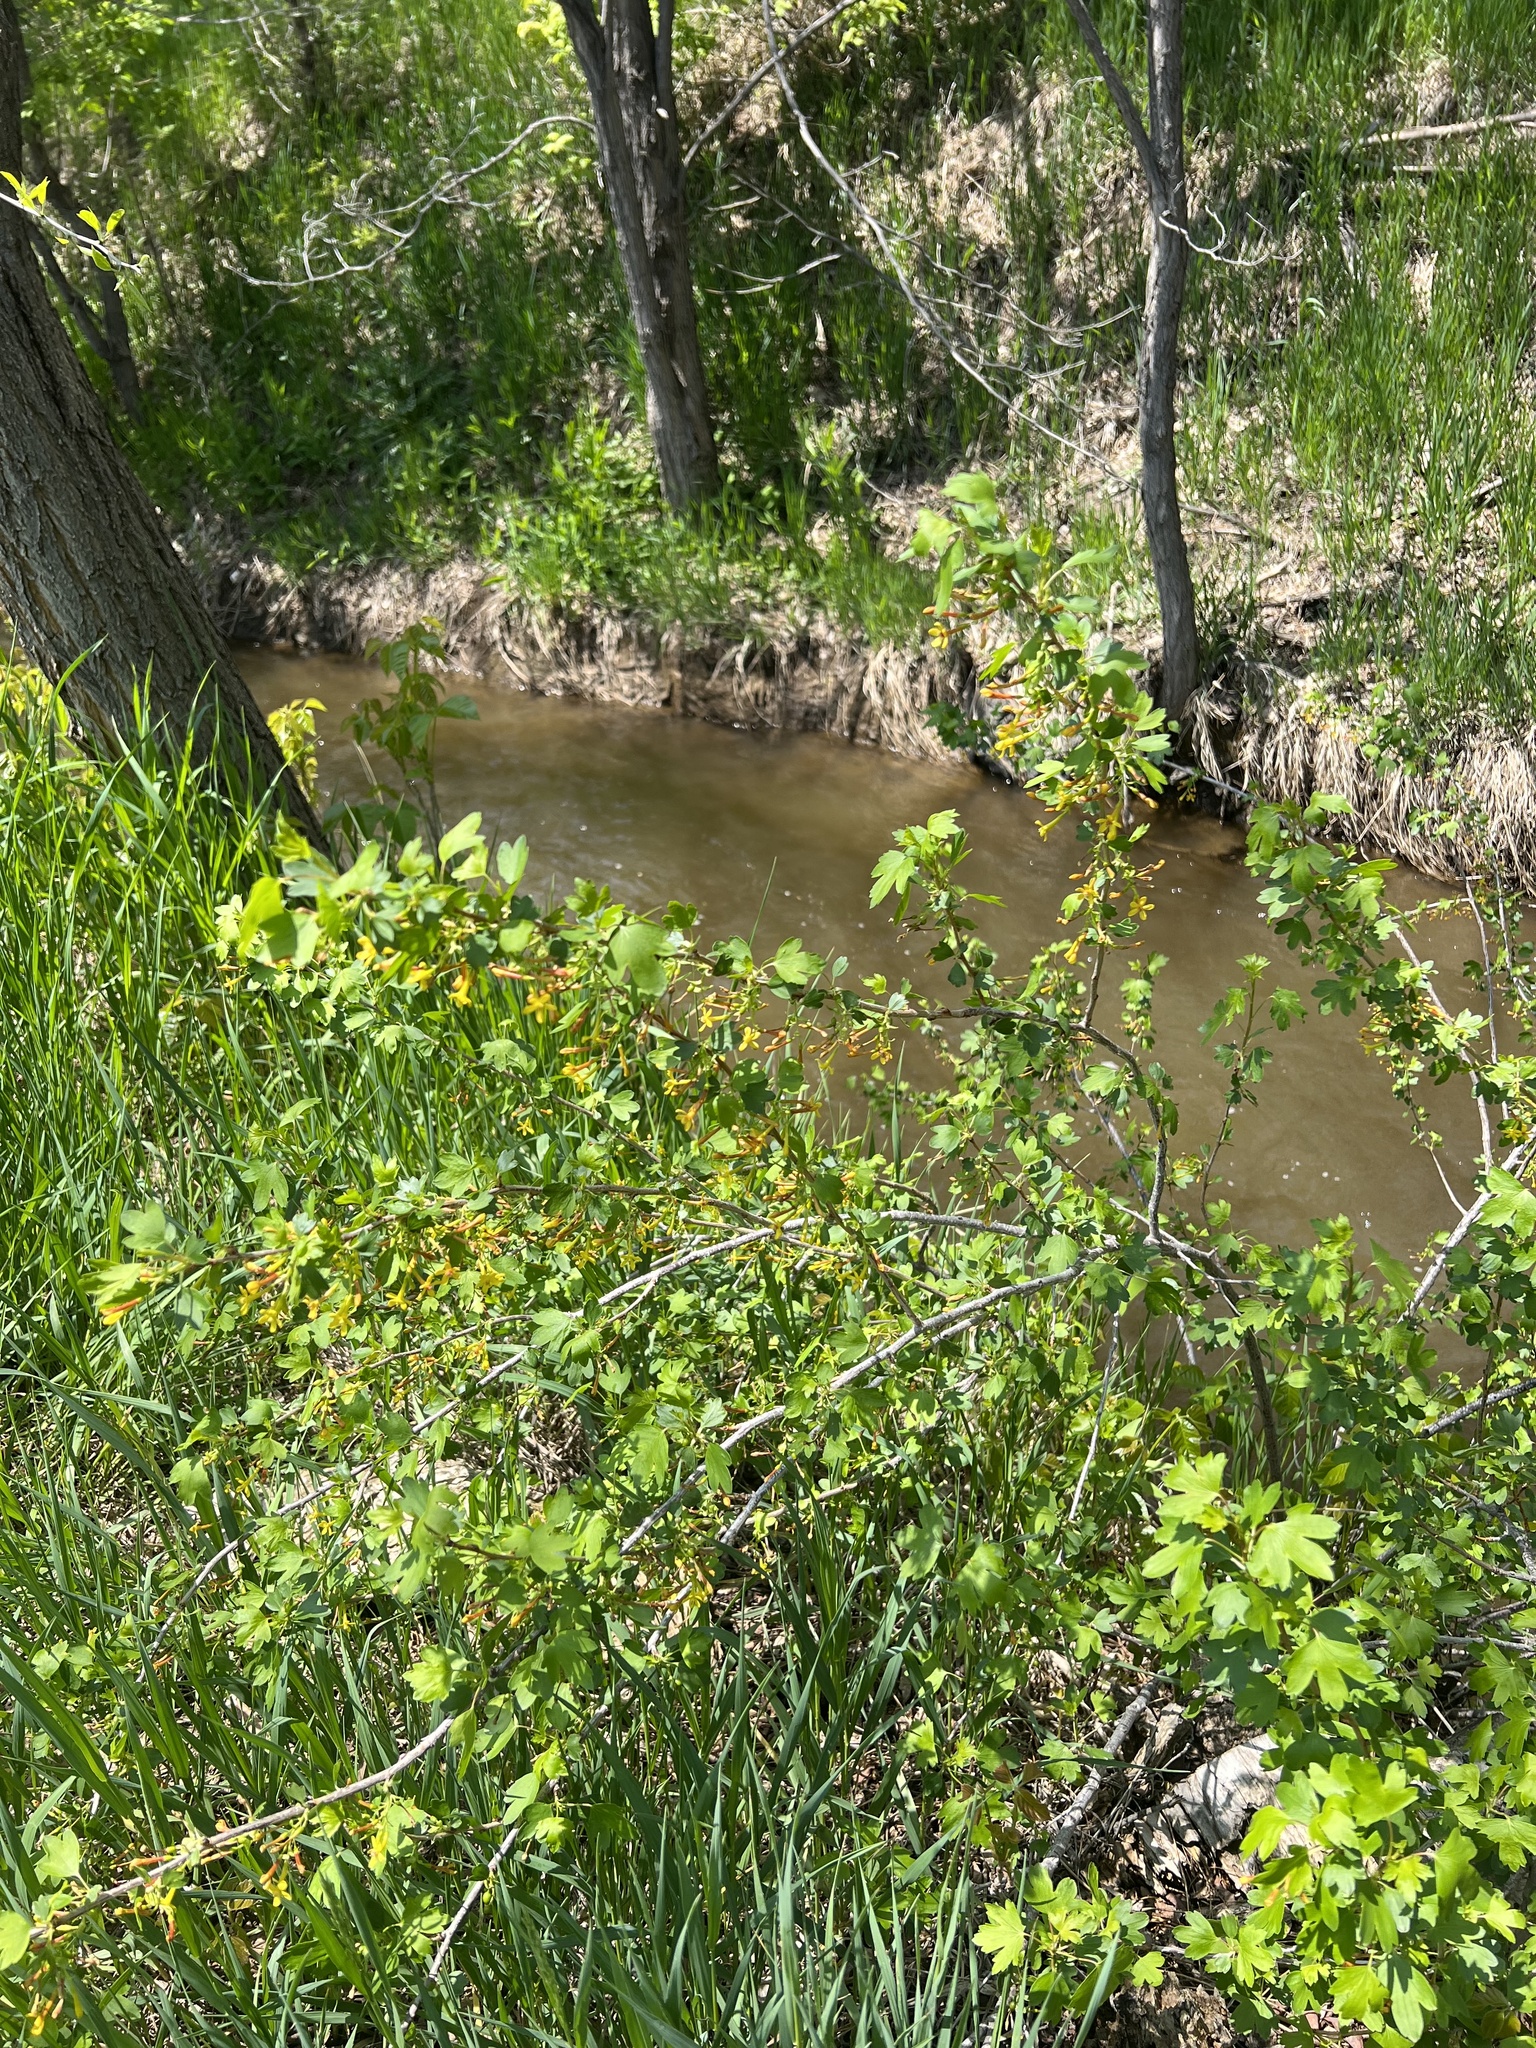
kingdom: Plantae
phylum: Tracheophyta
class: Magnoliopsida
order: Saxifragales
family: Grossulariaceae
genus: Ribes
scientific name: Ribes aureum
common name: Golden currant
